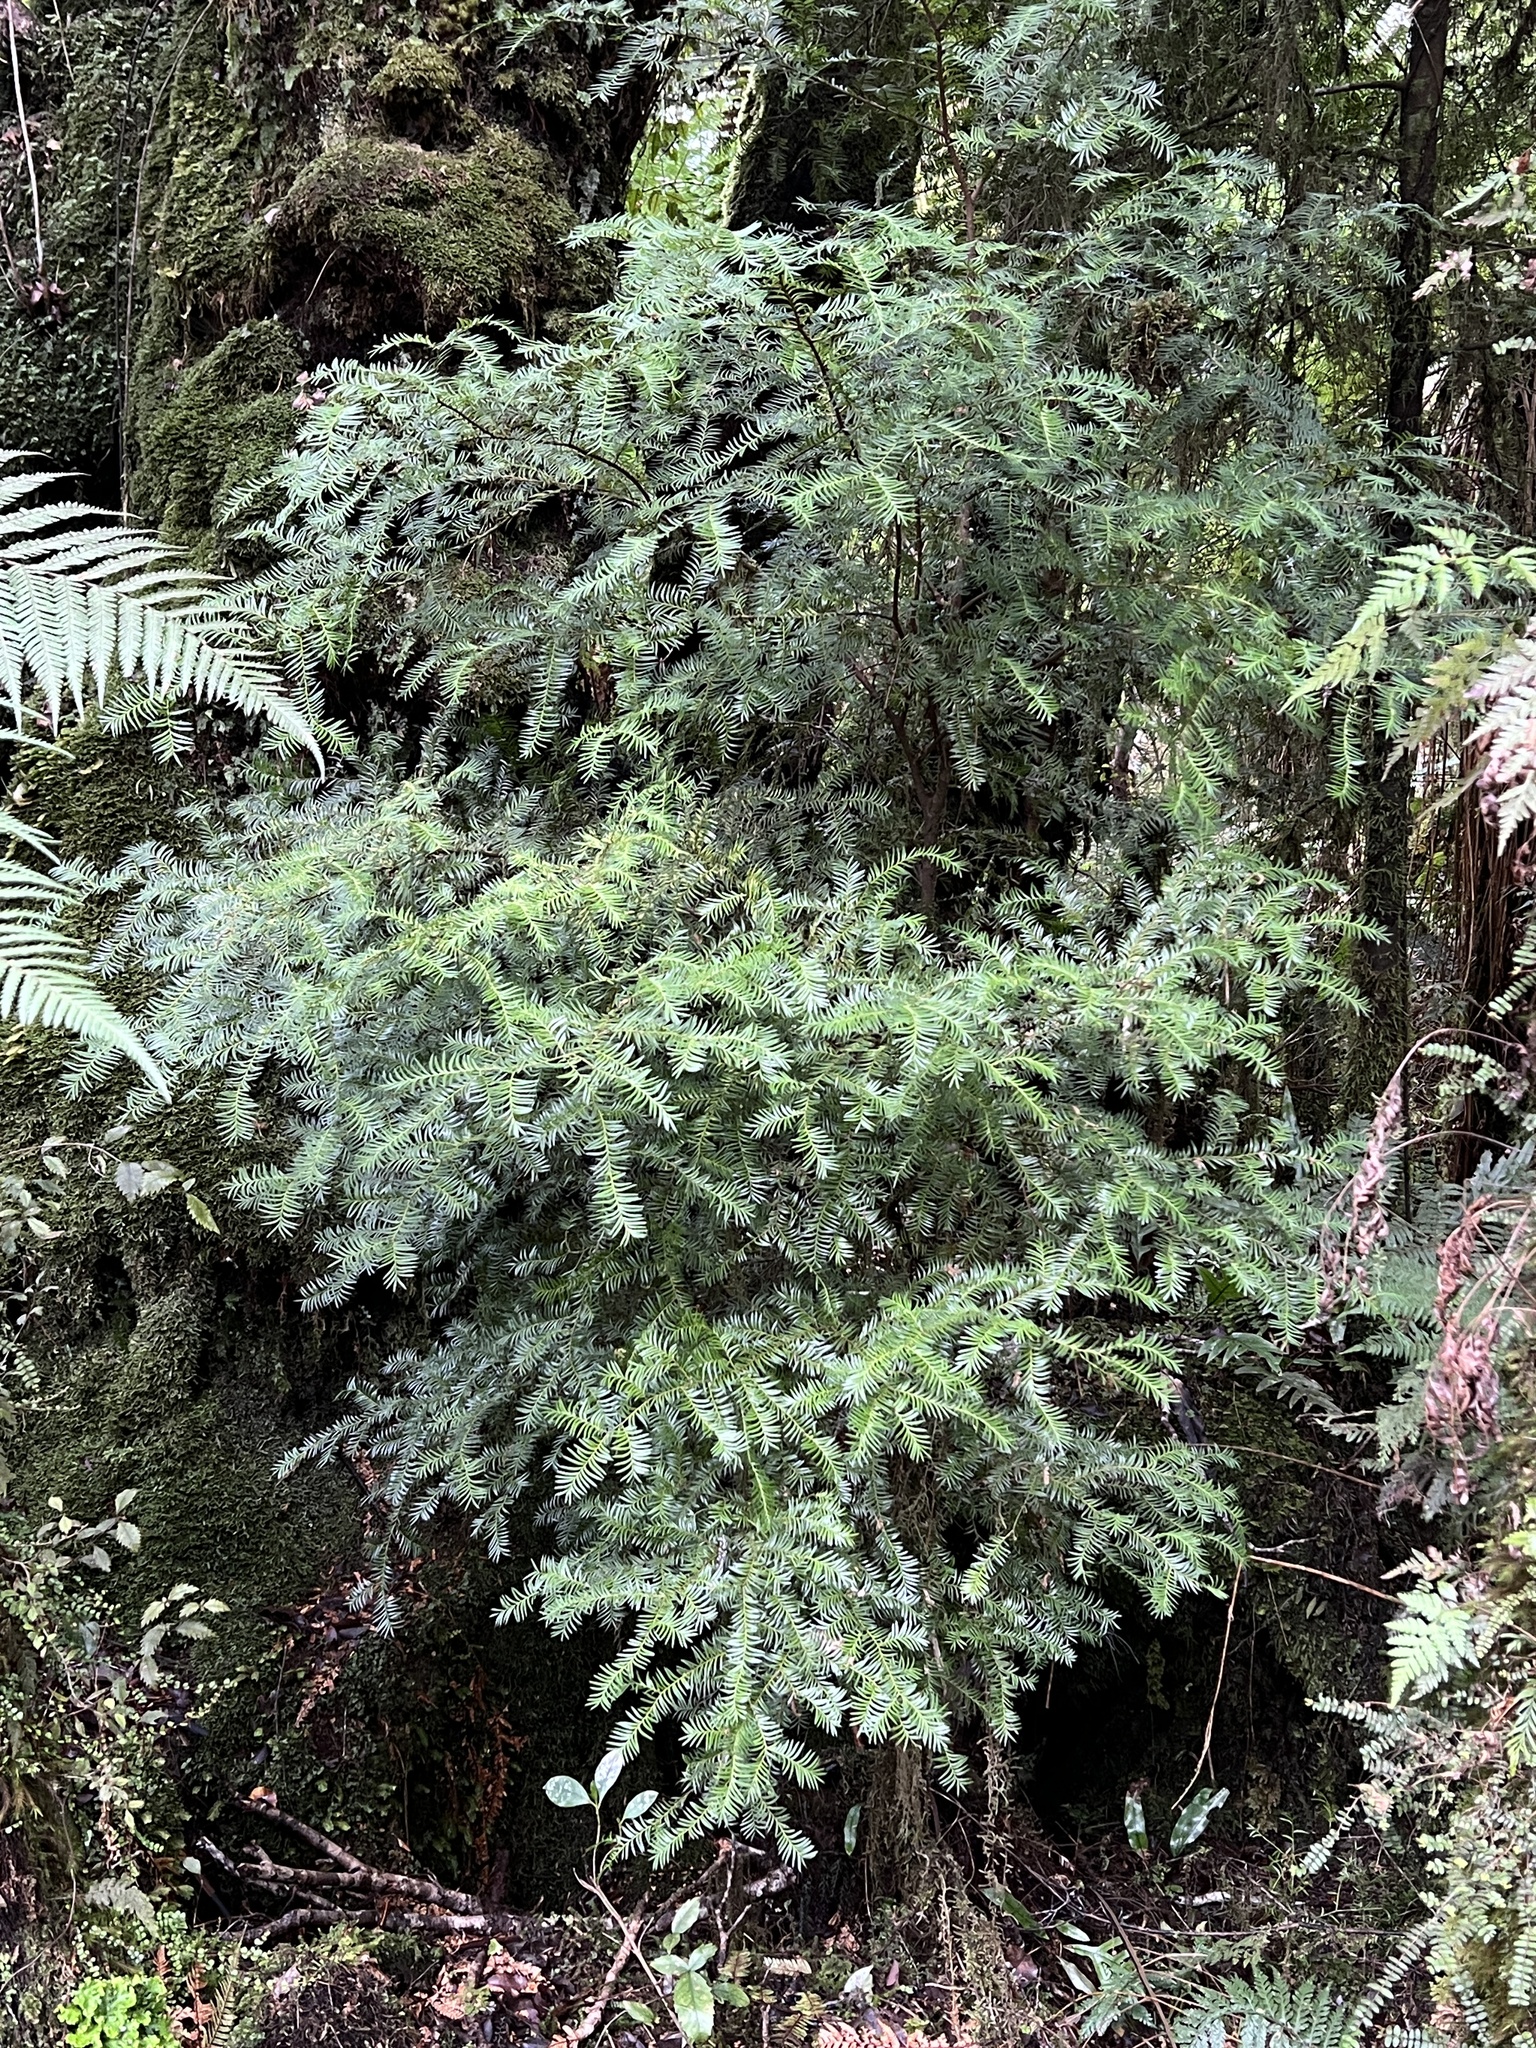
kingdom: Plantae
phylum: Tracheophyta
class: Pinopsida
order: Pinales
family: Podocarpaceae
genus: Prumnopitys
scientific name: Prumnopitys ferruginea
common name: Brown pine
